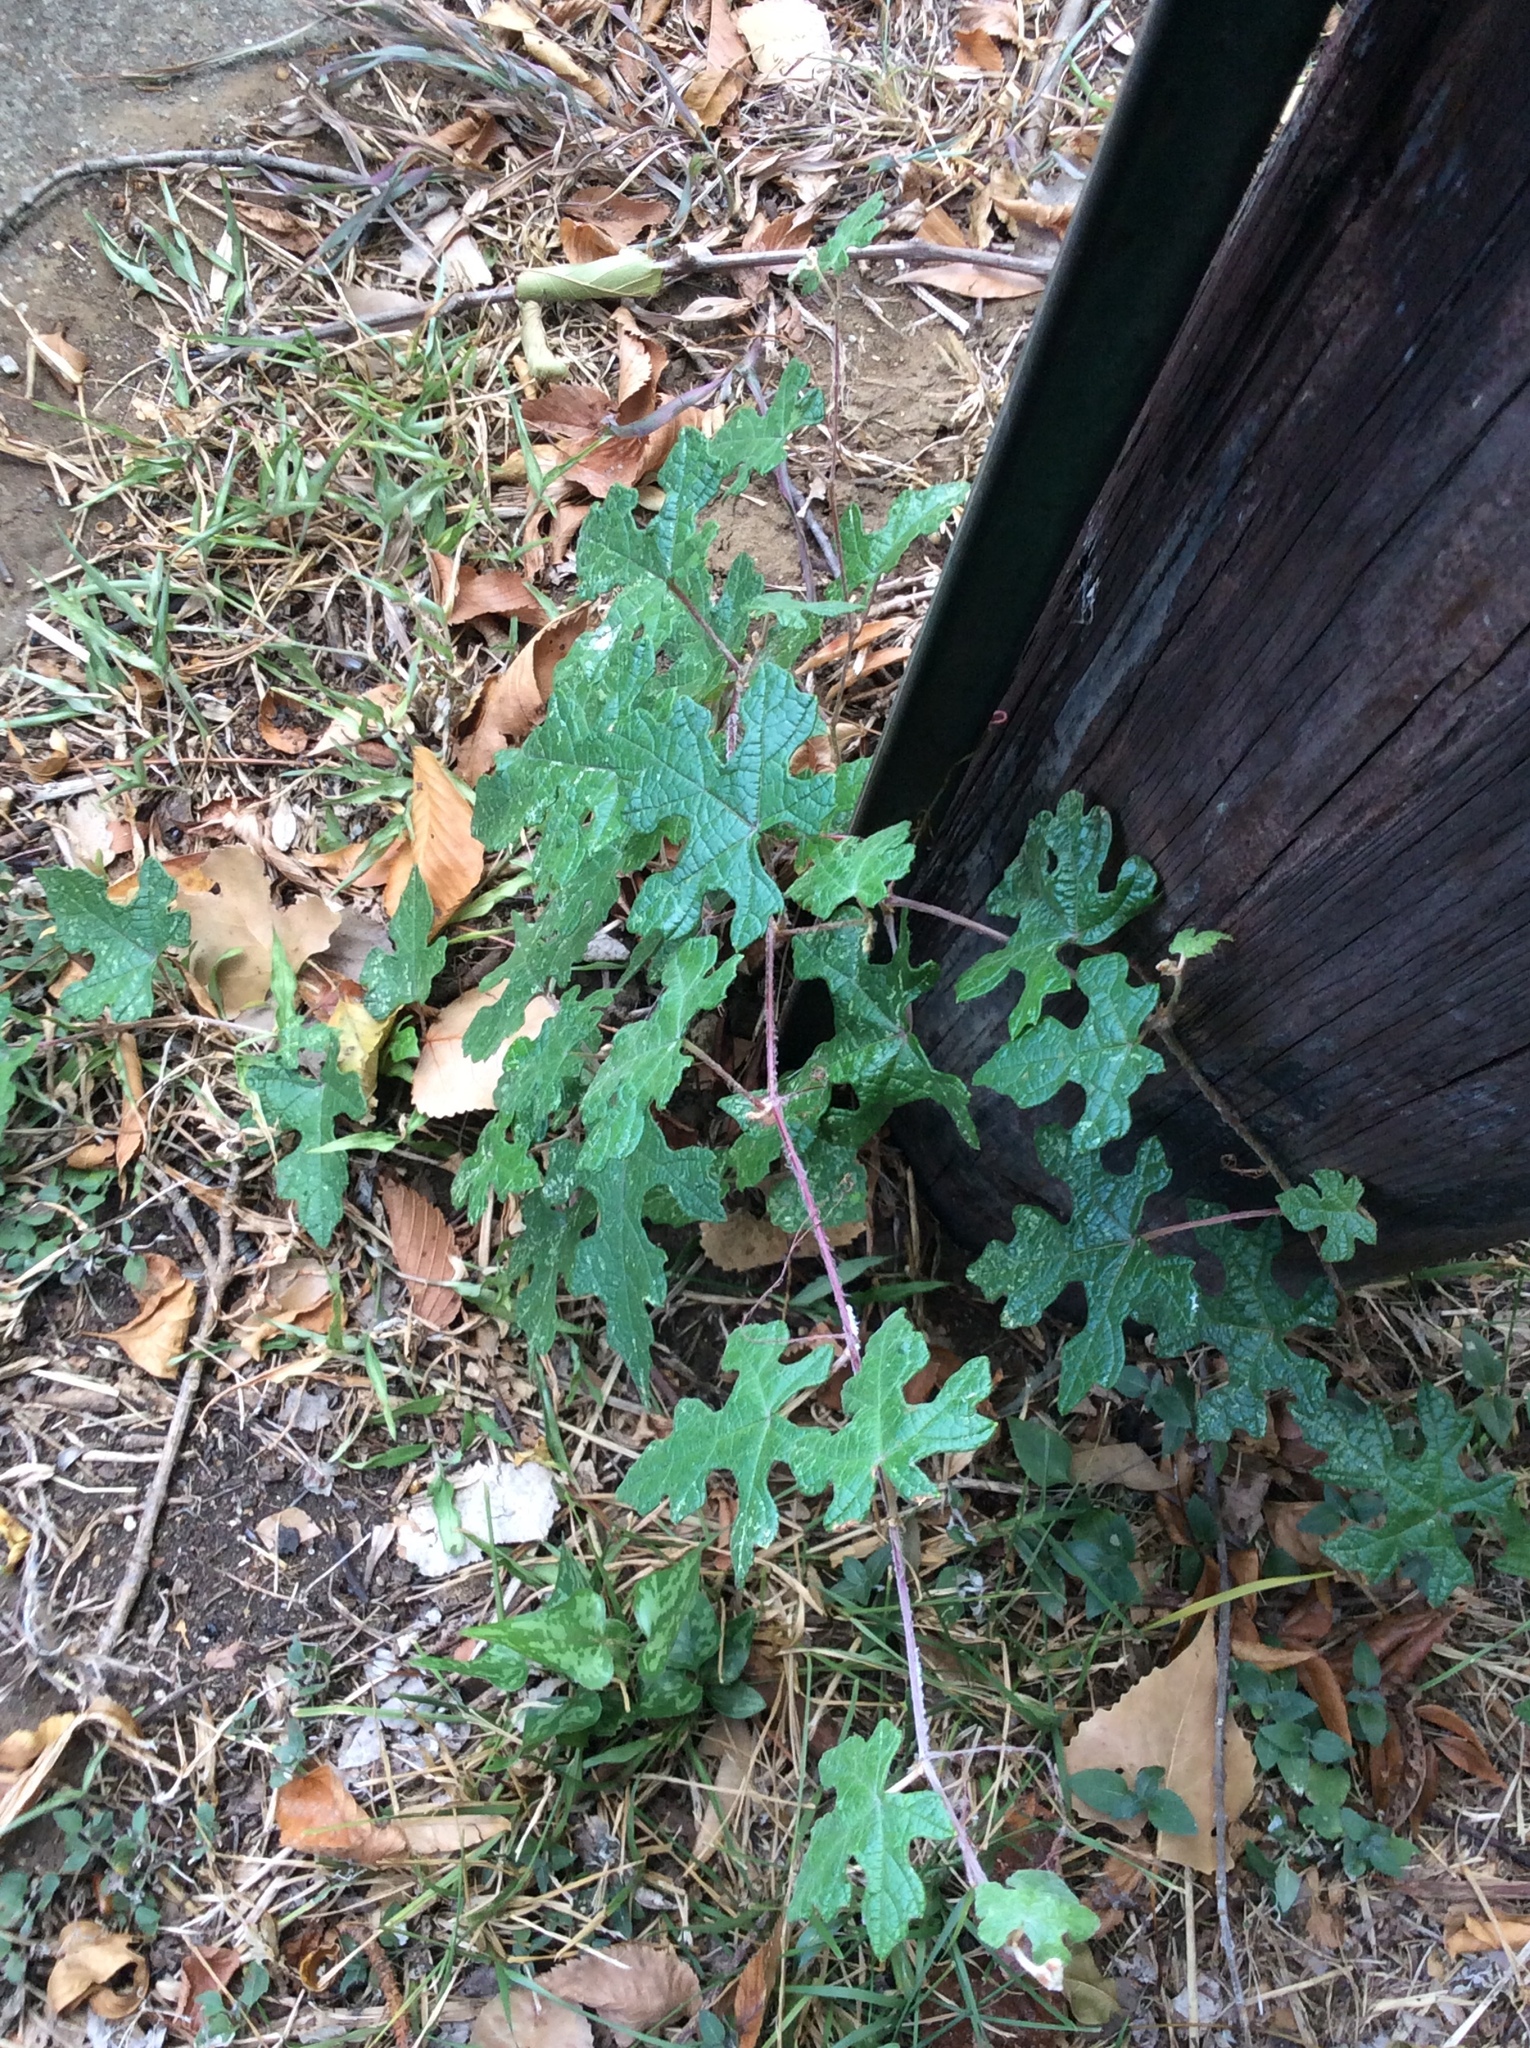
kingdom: Plantae
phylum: Tracheophyta
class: Magnoliopsida
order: Vitales
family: Vitaceae
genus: Vitis
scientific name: Vitis mustangensis
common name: Mustang grape
